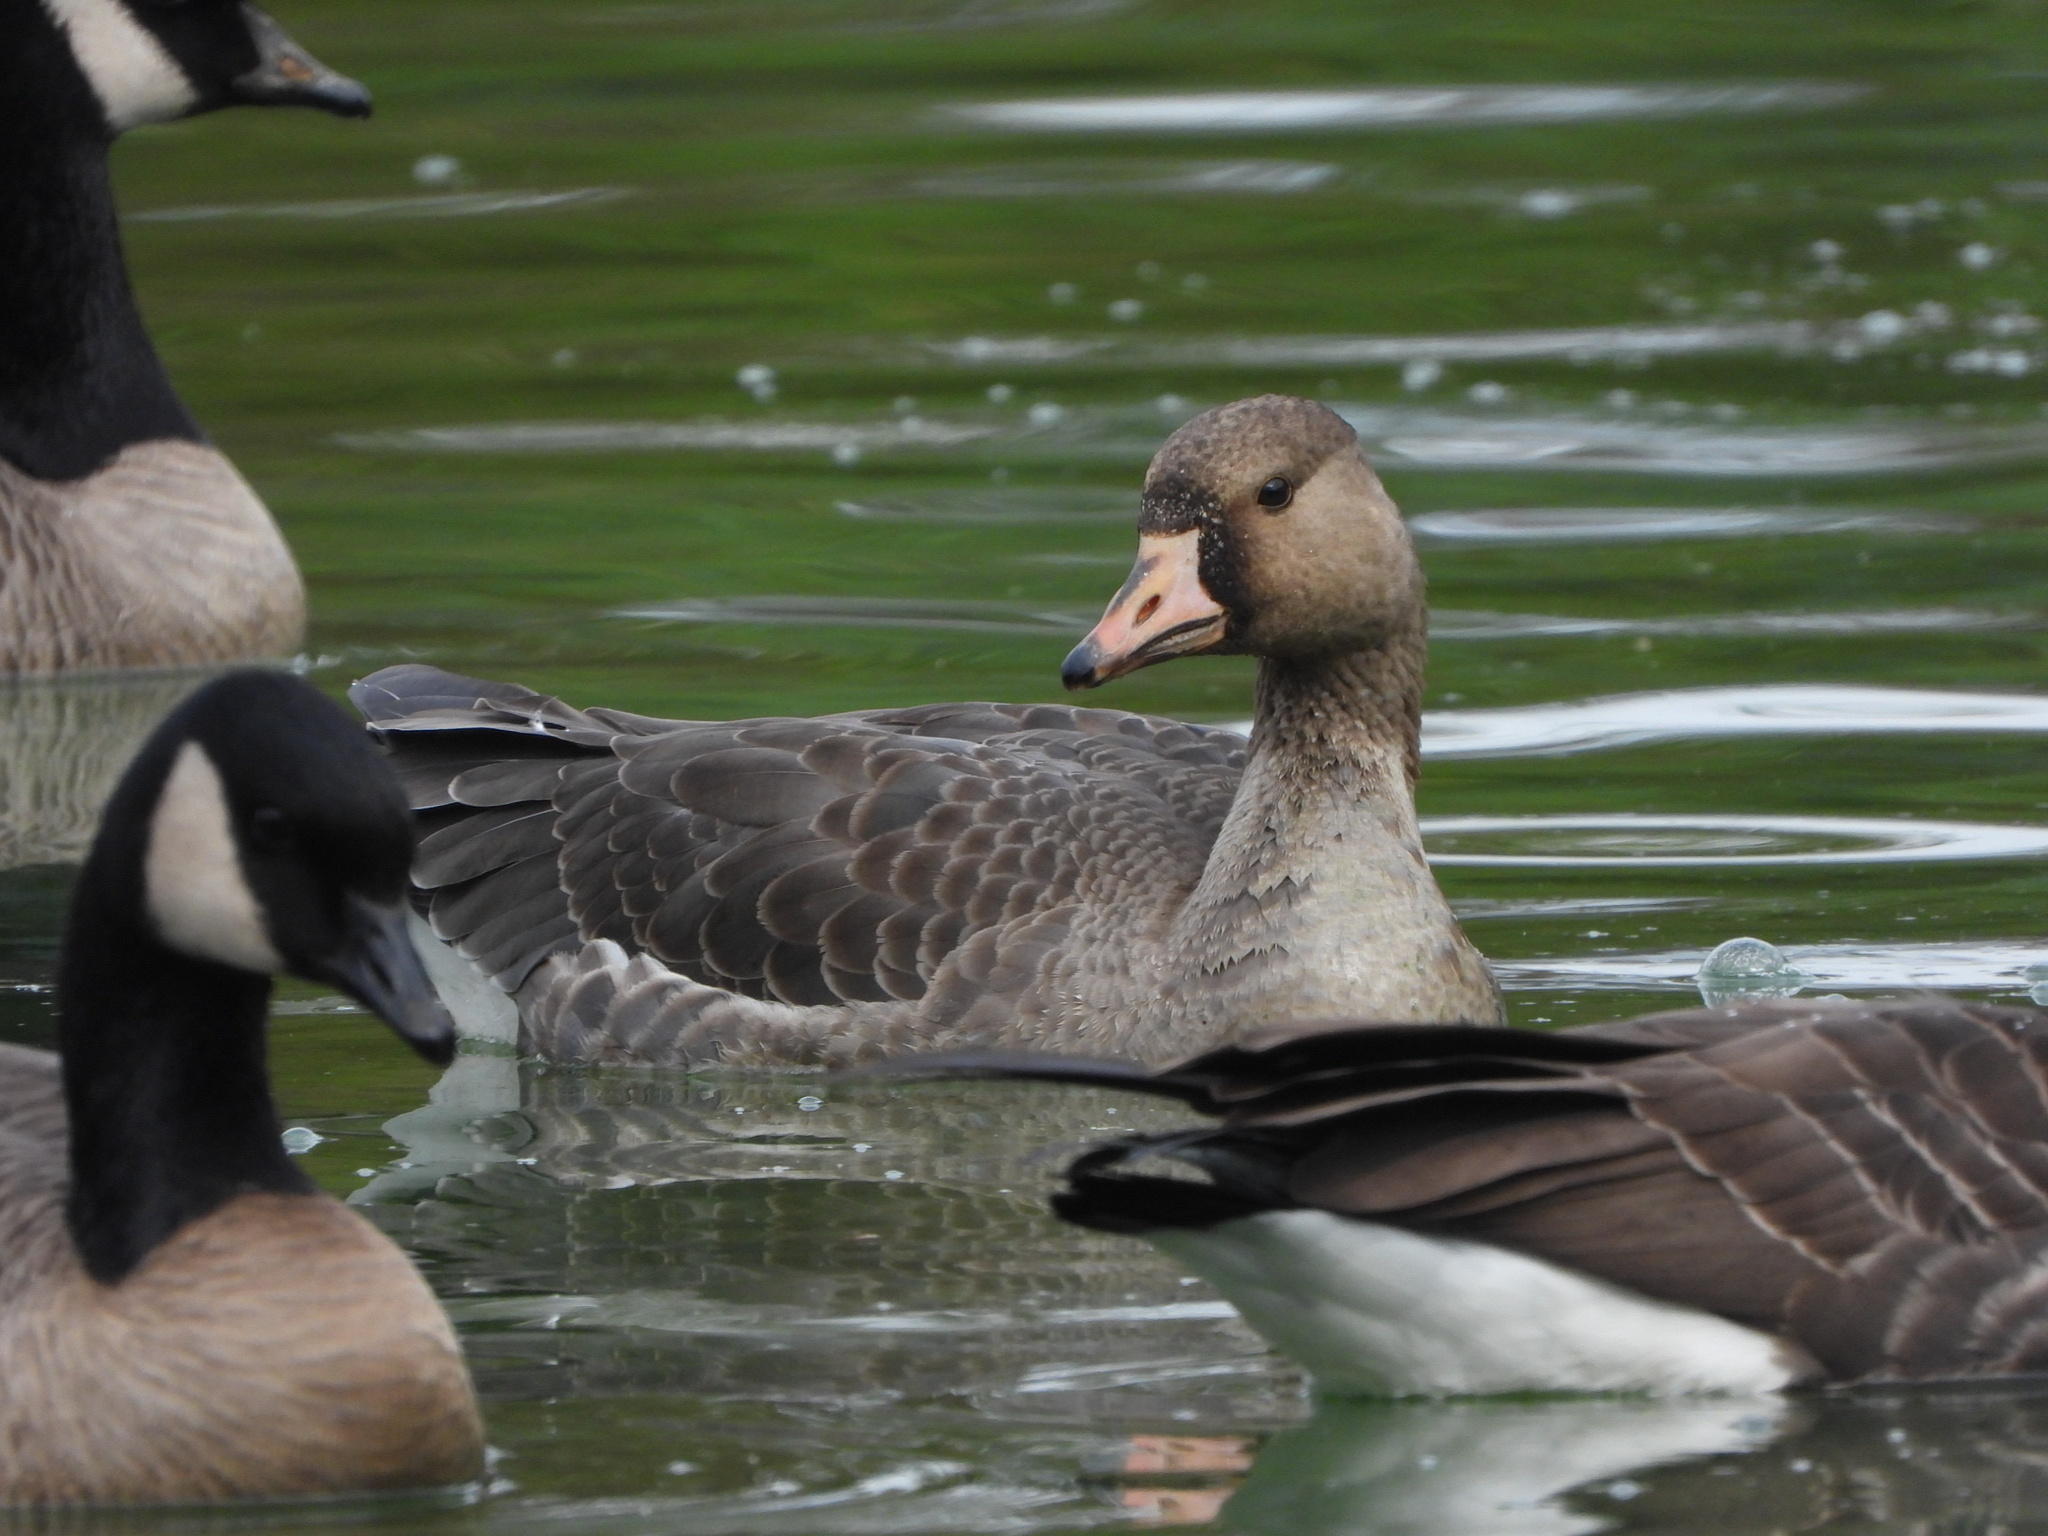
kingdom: Animalia
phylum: Chordata
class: Aves
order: Anseriformes
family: Anatidae
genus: Anser
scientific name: Anser albifrons
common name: Greater white-fronted goose
